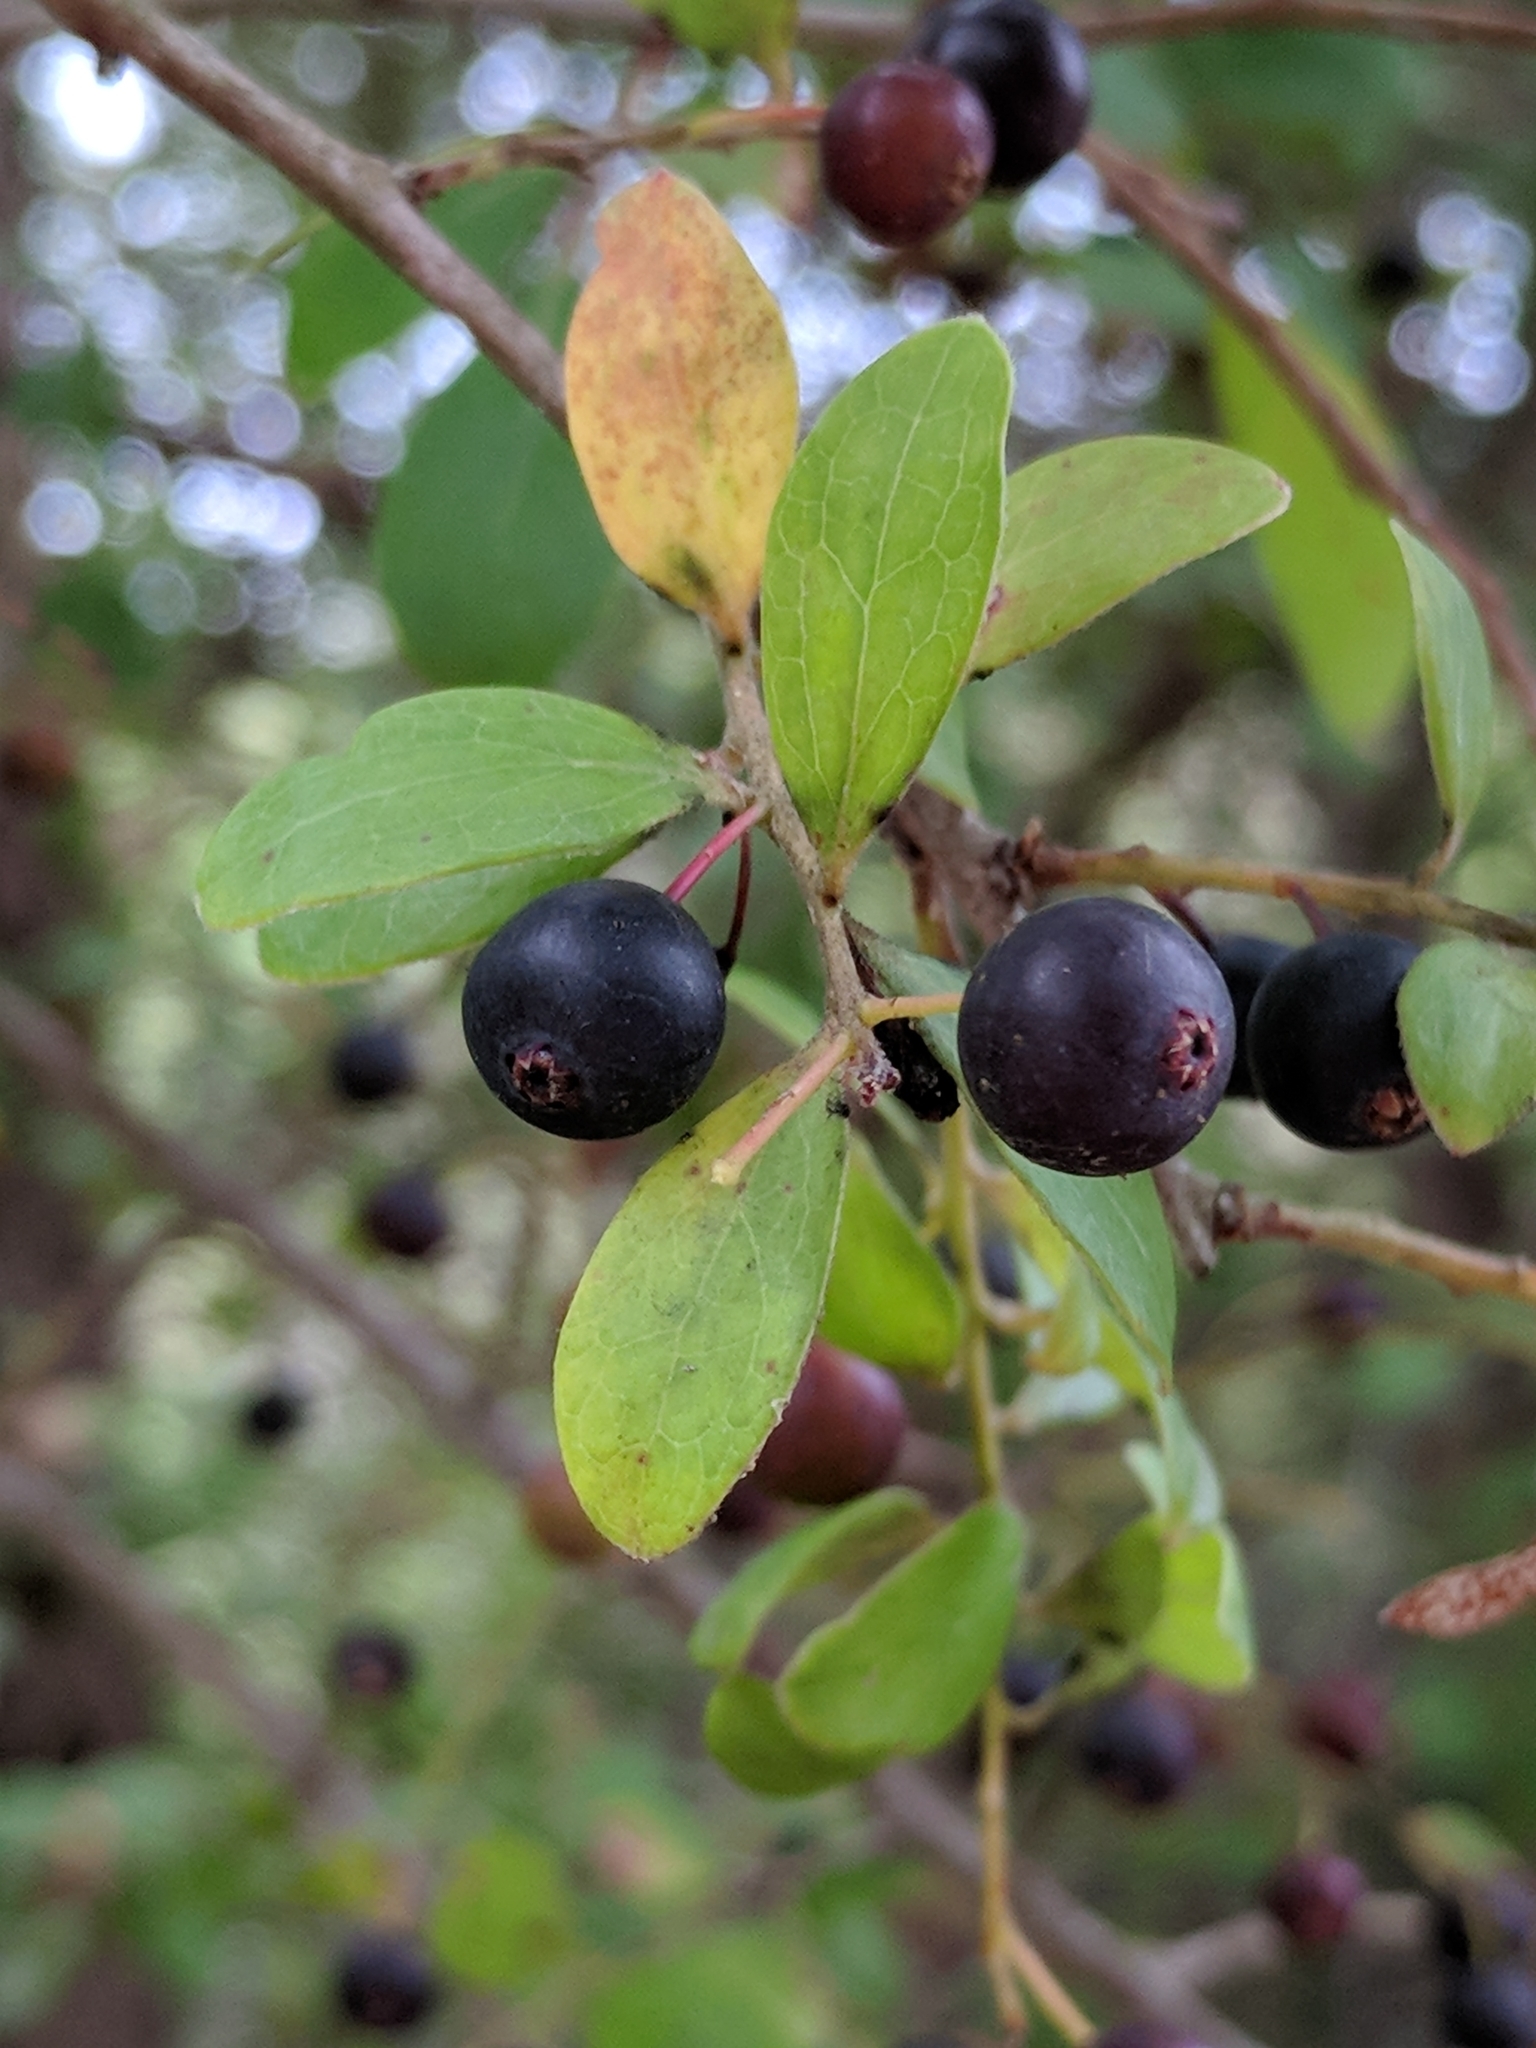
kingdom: Plantae
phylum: Tracheophyta
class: Magnoliopsida
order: Ericales
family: Ericaceae
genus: Vaccinium
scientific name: Vaccinium arboreum
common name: Farkleberry
